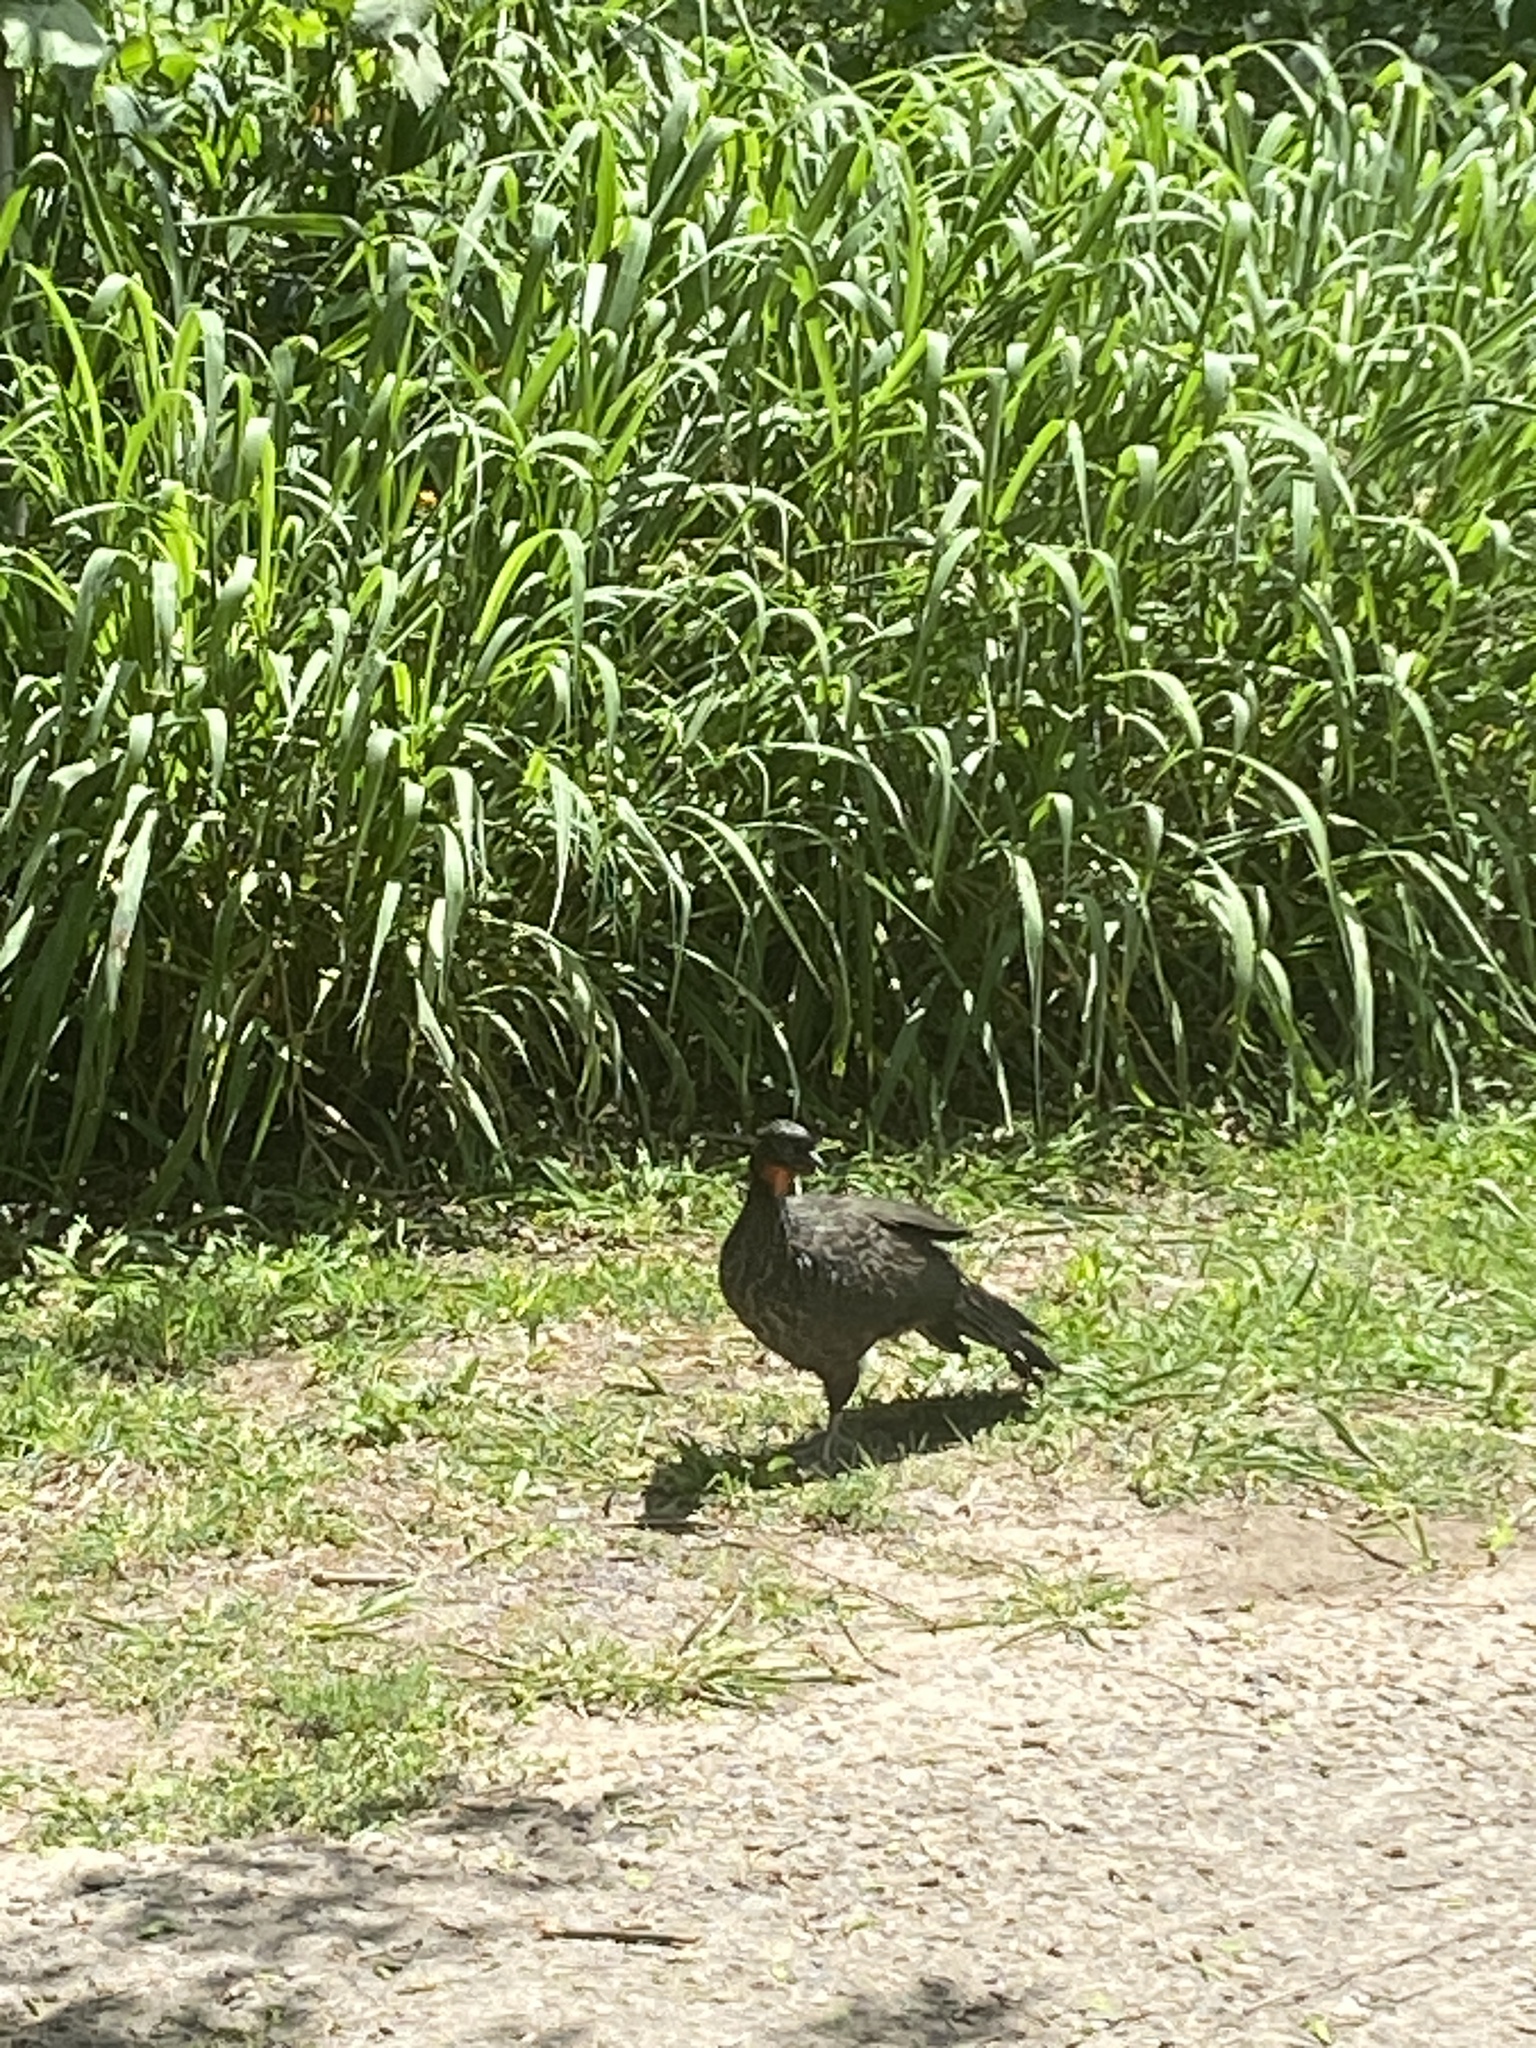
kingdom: Animalia
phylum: Chordata
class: Aves
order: Galliformes
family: Cracidae
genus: Penelope
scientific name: Penelope obscura
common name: Dusky-legged guan
